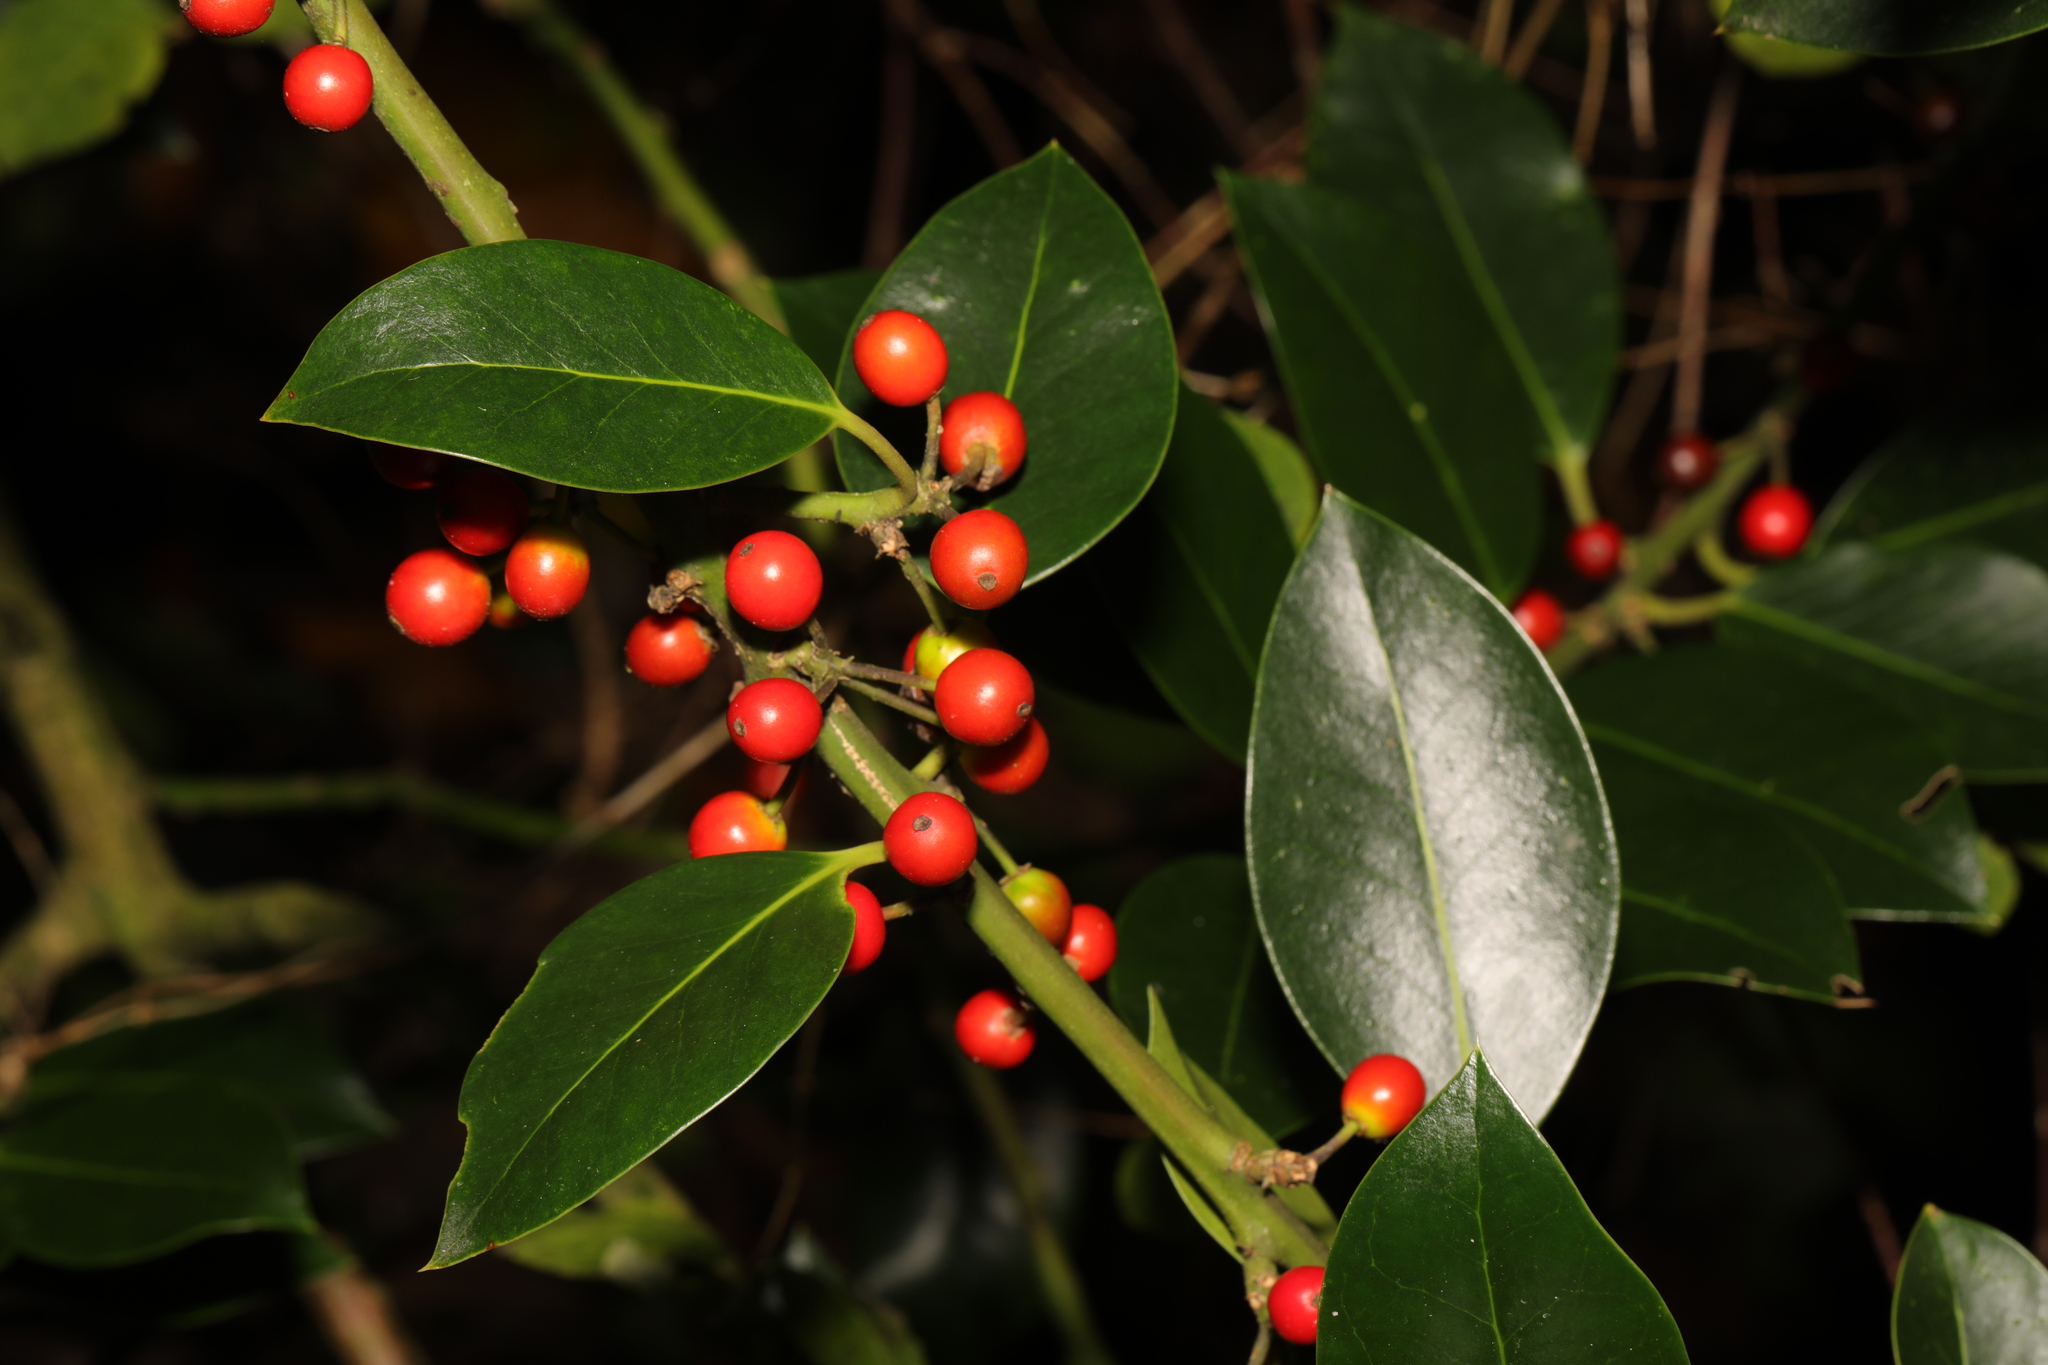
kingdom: Plantae
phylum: Tracheophyta
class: Magnoliopsida
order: Aquifoliales
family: Aquifoliaceae
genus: Ilex
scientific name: Ilex aquifolium
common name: English holly
